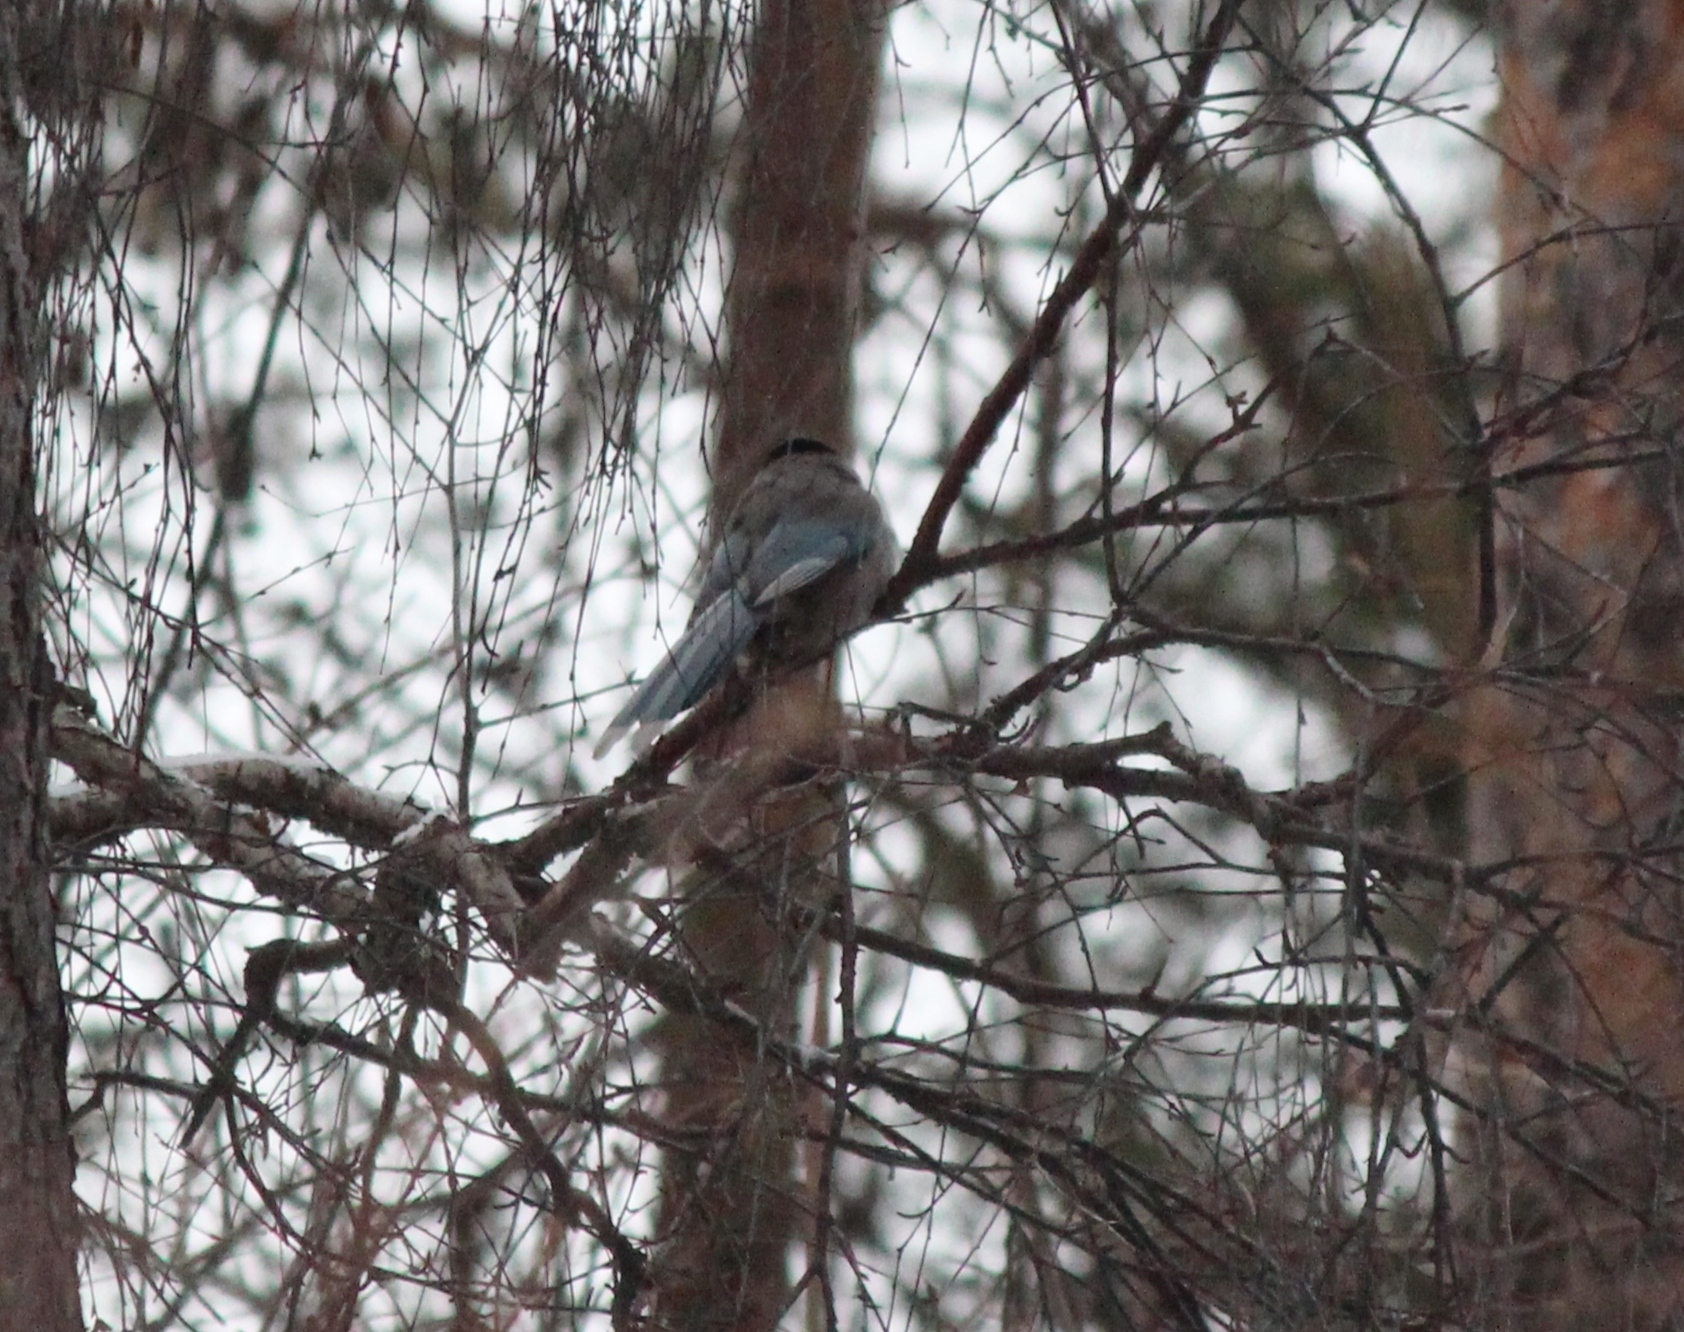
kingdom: Animalia
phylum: Chordata
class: Aves
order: Passeriformes
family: Corvidae
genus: Cyanopica
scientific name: Cyanopica cyanus
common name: Azure-winged magpie
